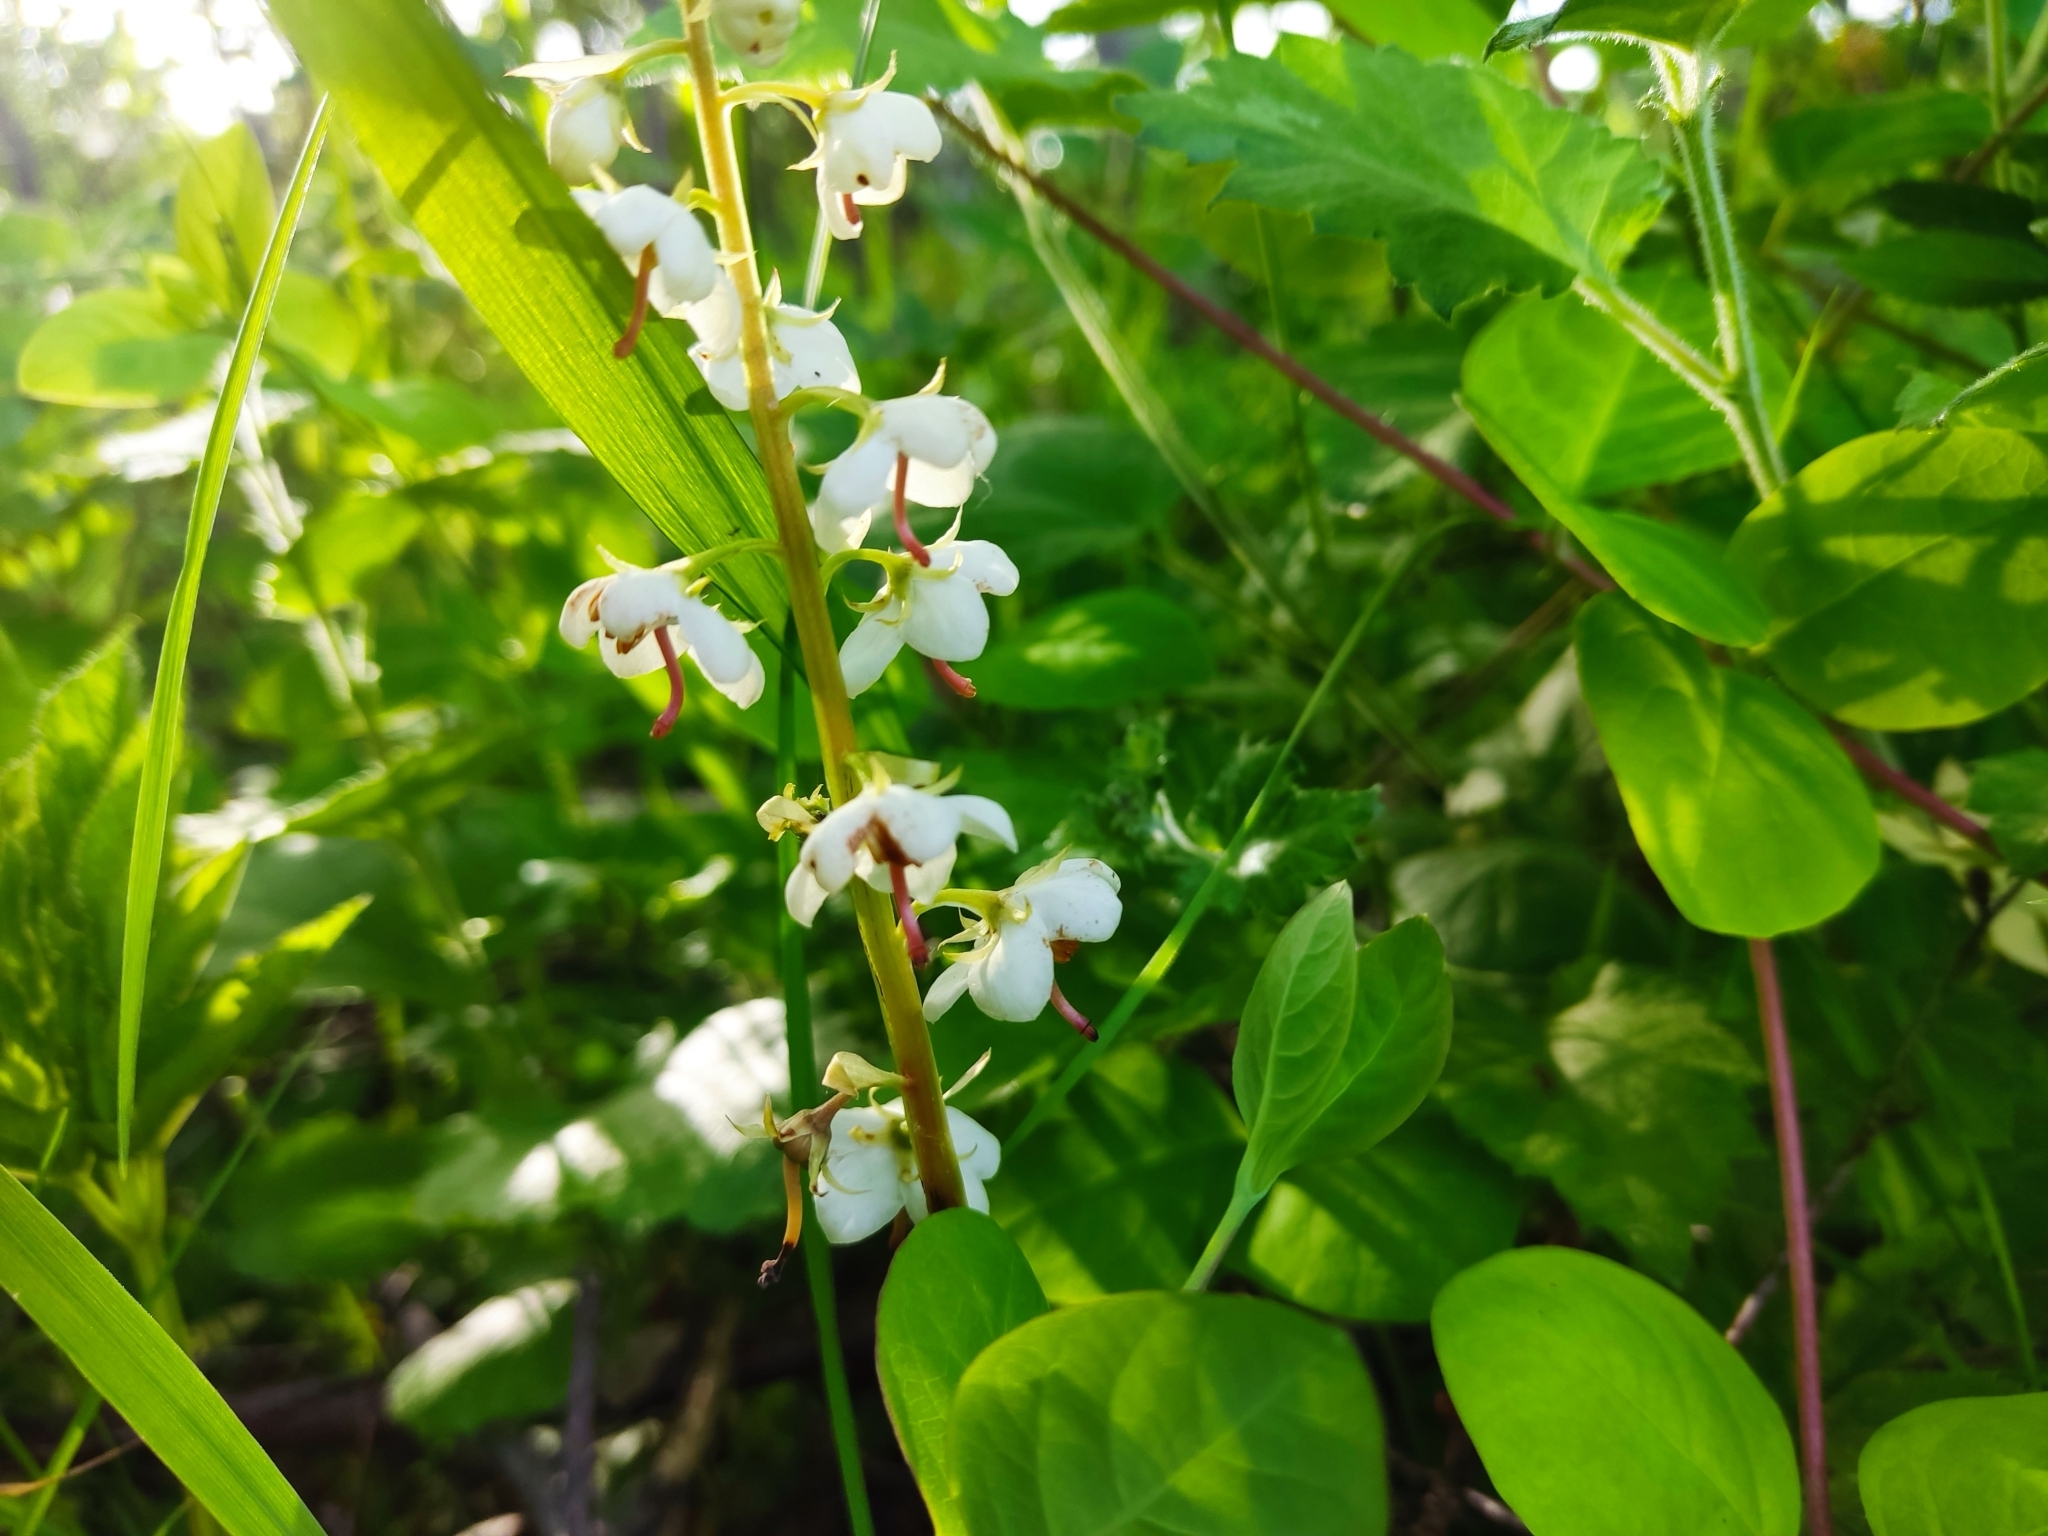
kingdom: Plantae
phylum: Tracheophyta
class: Magnoliopsida
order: Ericales
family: Ericaceae
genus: Pyrola
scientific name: Pyrola rotundifolia
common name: Round-leaved wintergreen
